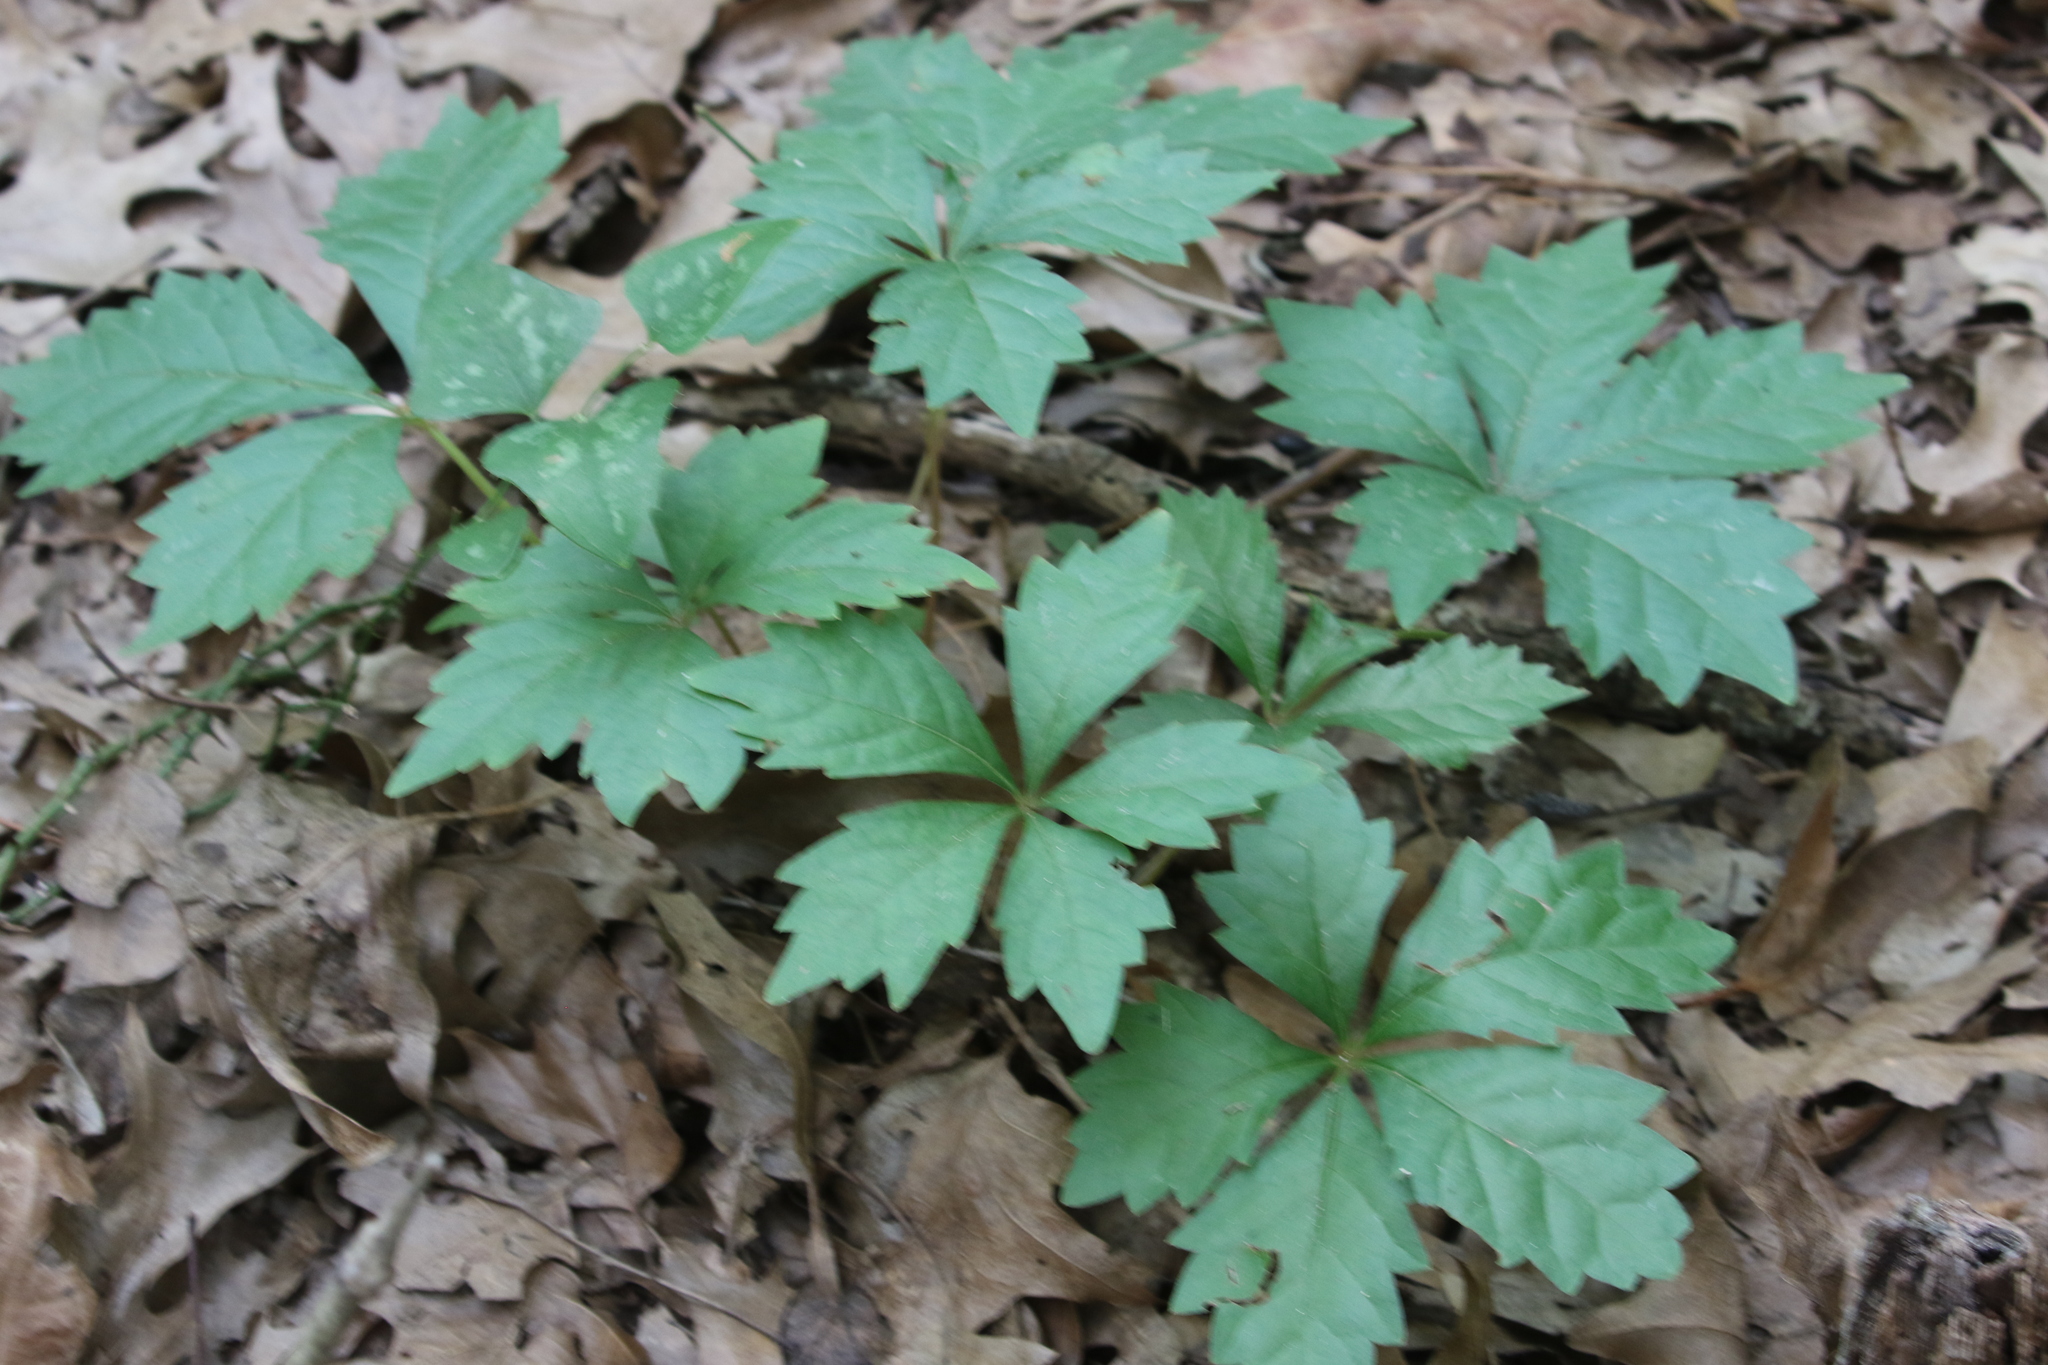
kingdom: Plantae
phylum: Tracheophyta
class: Magnoliopsida
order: Vitales
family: Vitaceae
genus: Parthenocissus
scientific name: Parthenocissus quinquefolia
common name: Virginia-creeper
